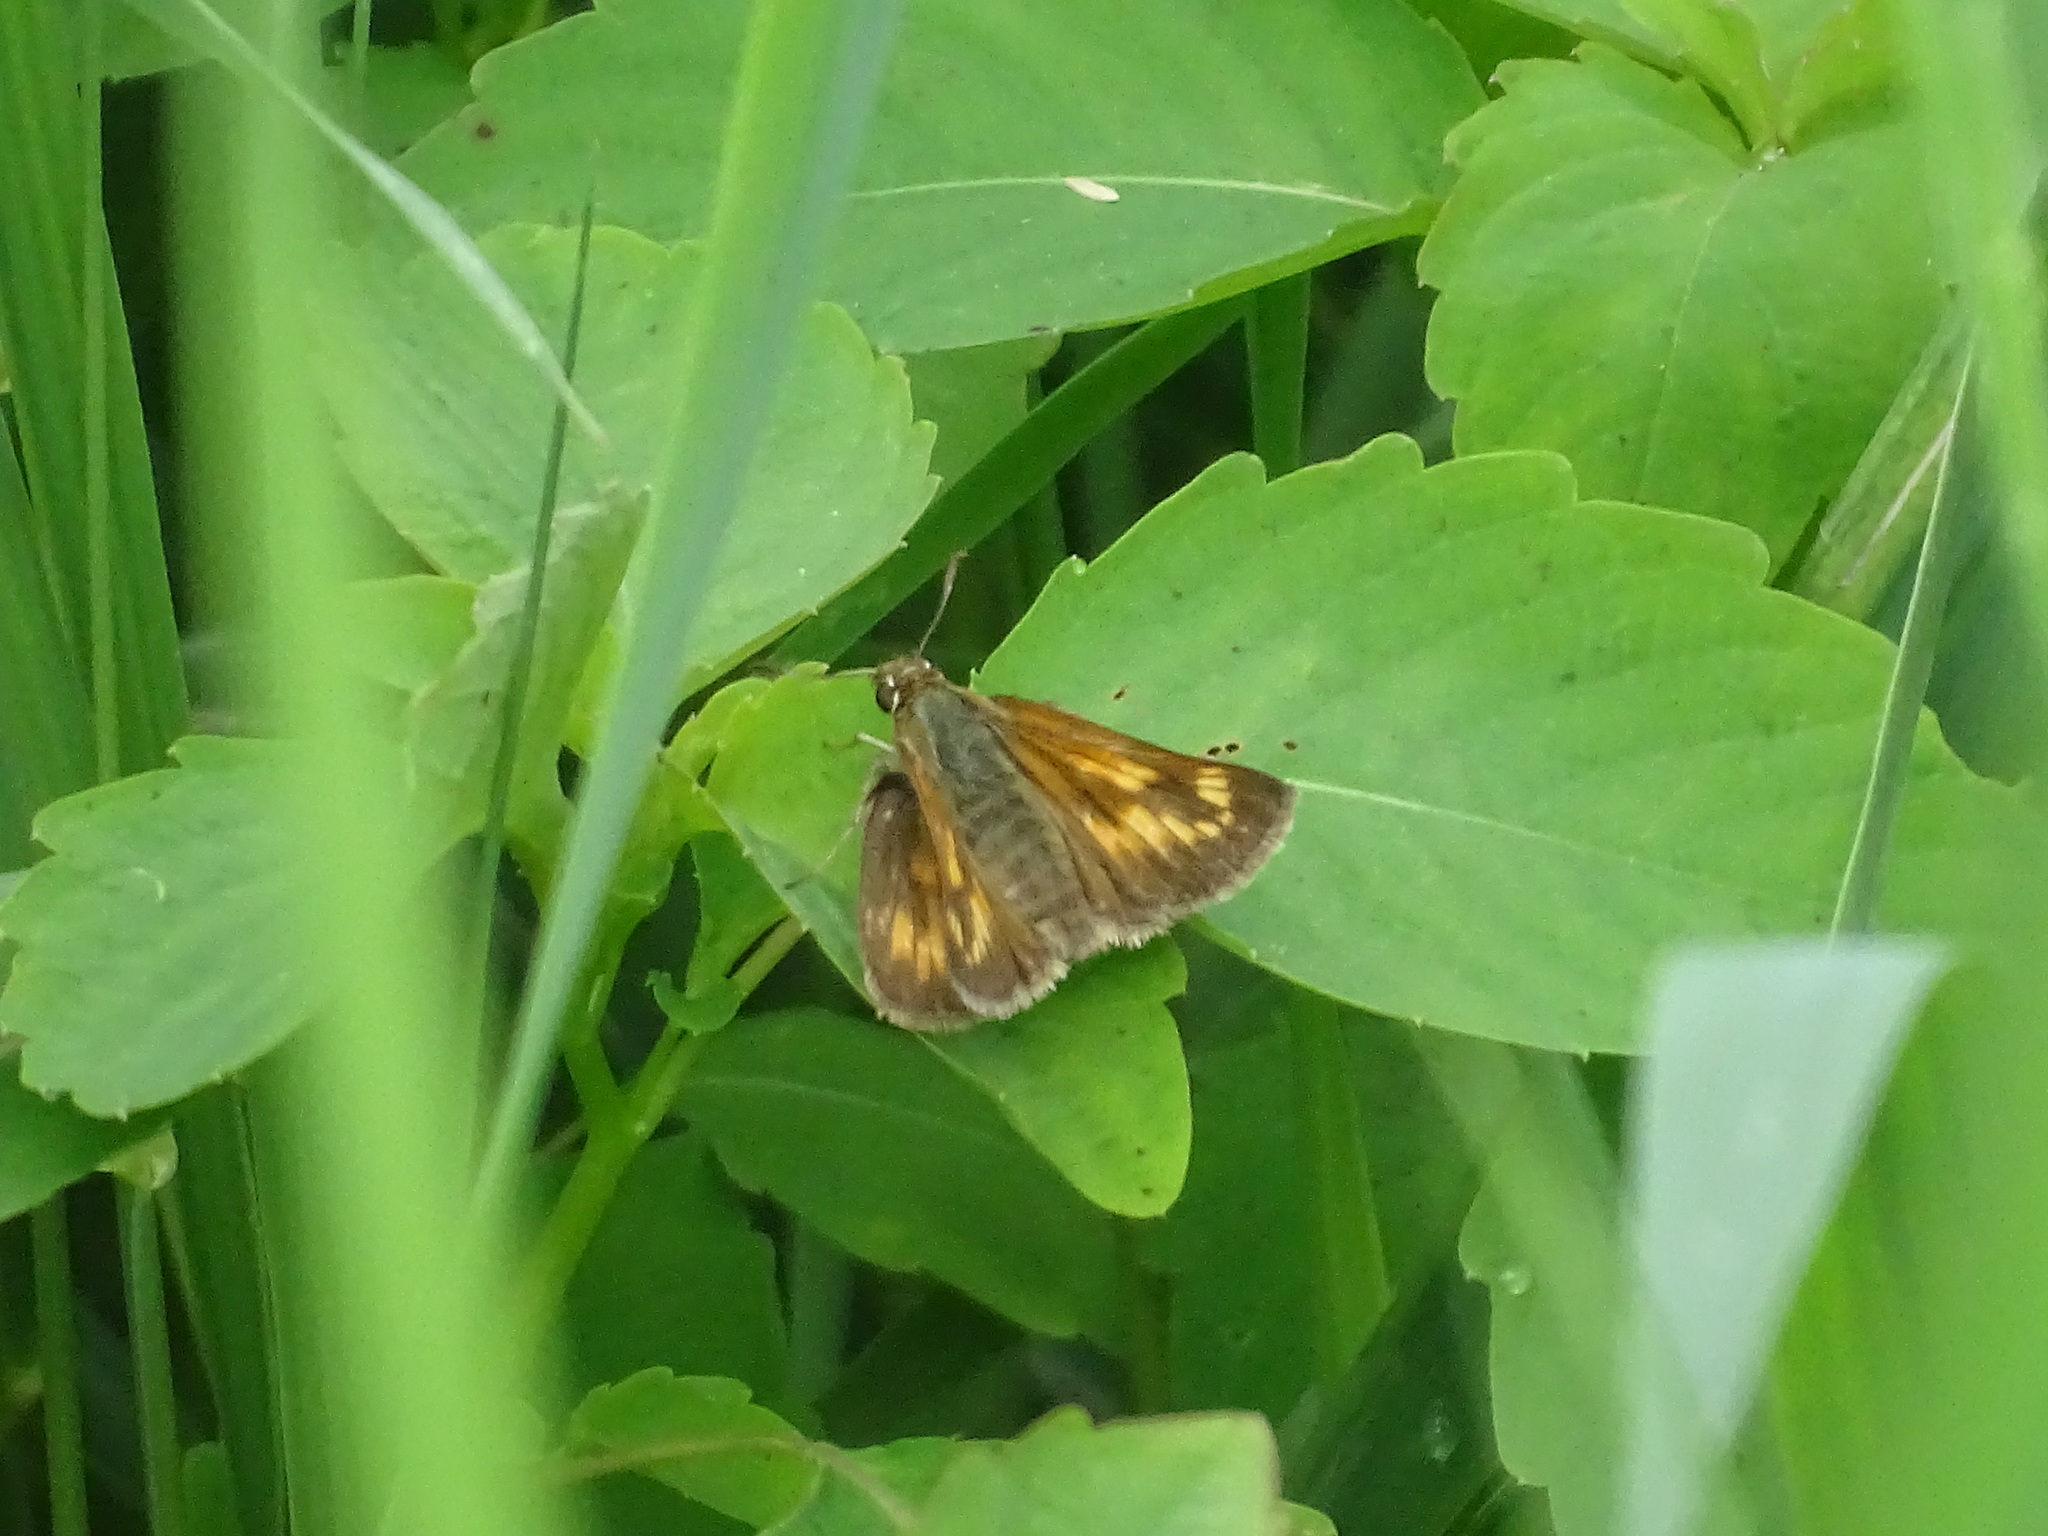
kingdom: Animalia
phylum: Arthropoda
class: Insecta
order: Lepidoptera
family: Hesperiidae
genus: Polites
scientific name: Polites mystic
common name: Long dash
